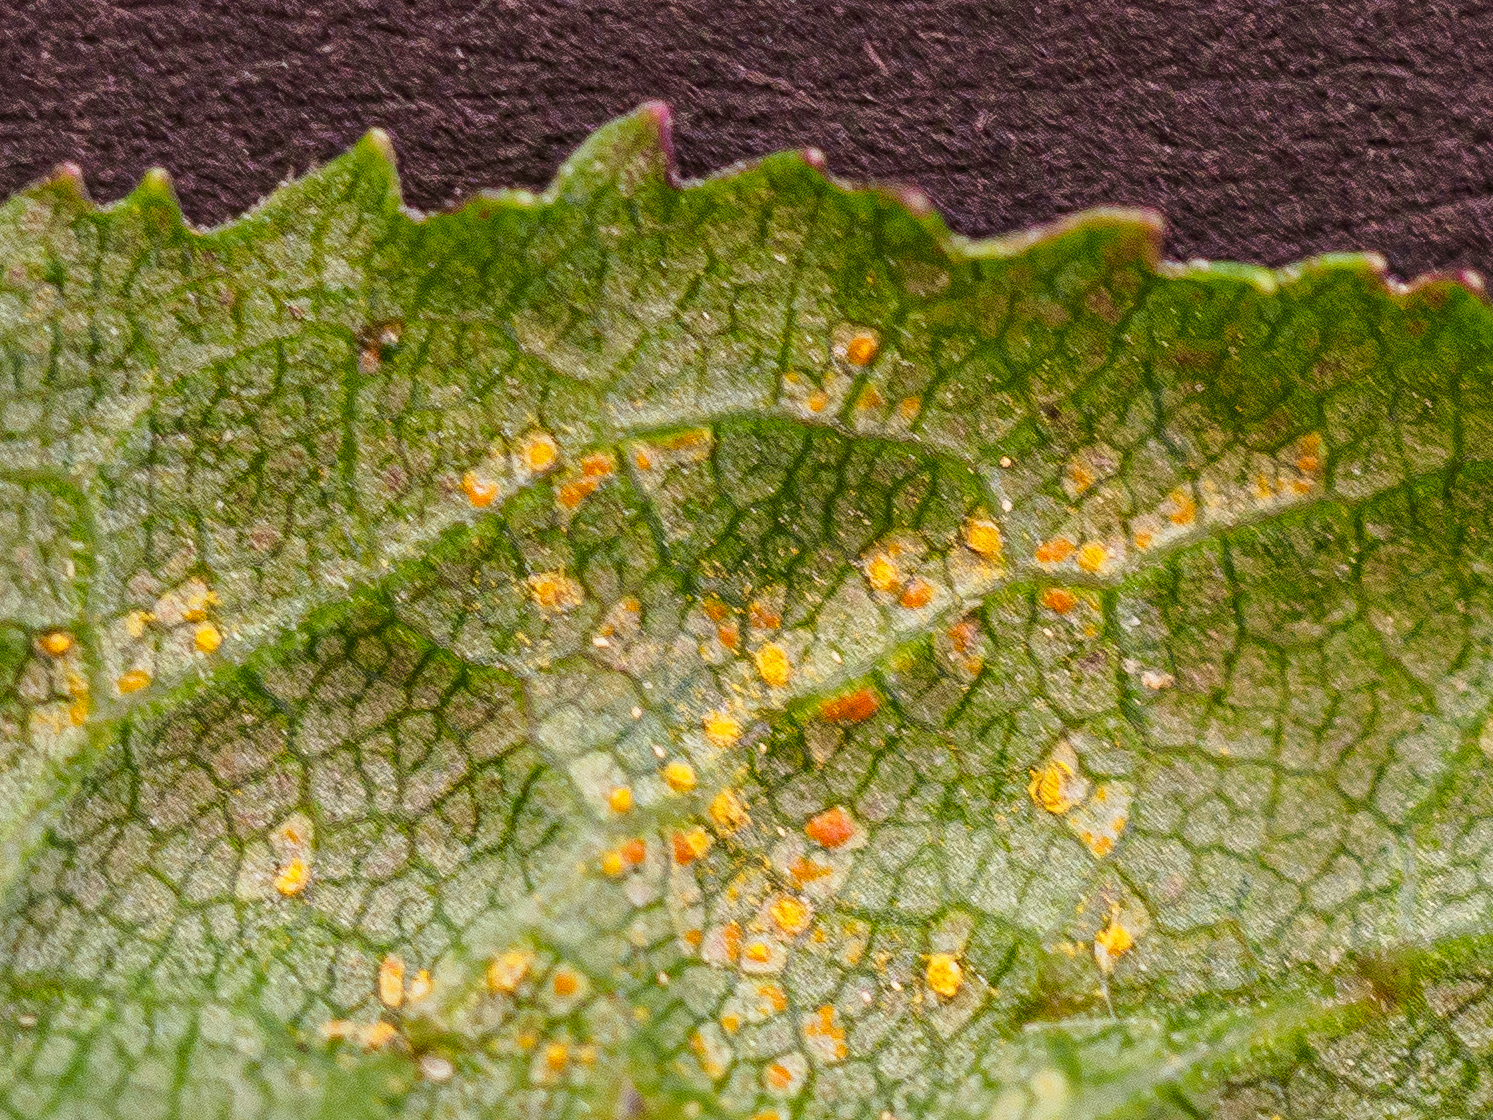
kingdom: Fungi
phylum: Basidiomycota
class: Pucciniomycetes
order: Pucciniales
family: Coleosporiaceae
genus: Coleosporium
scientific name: Coleosporium senecionis
